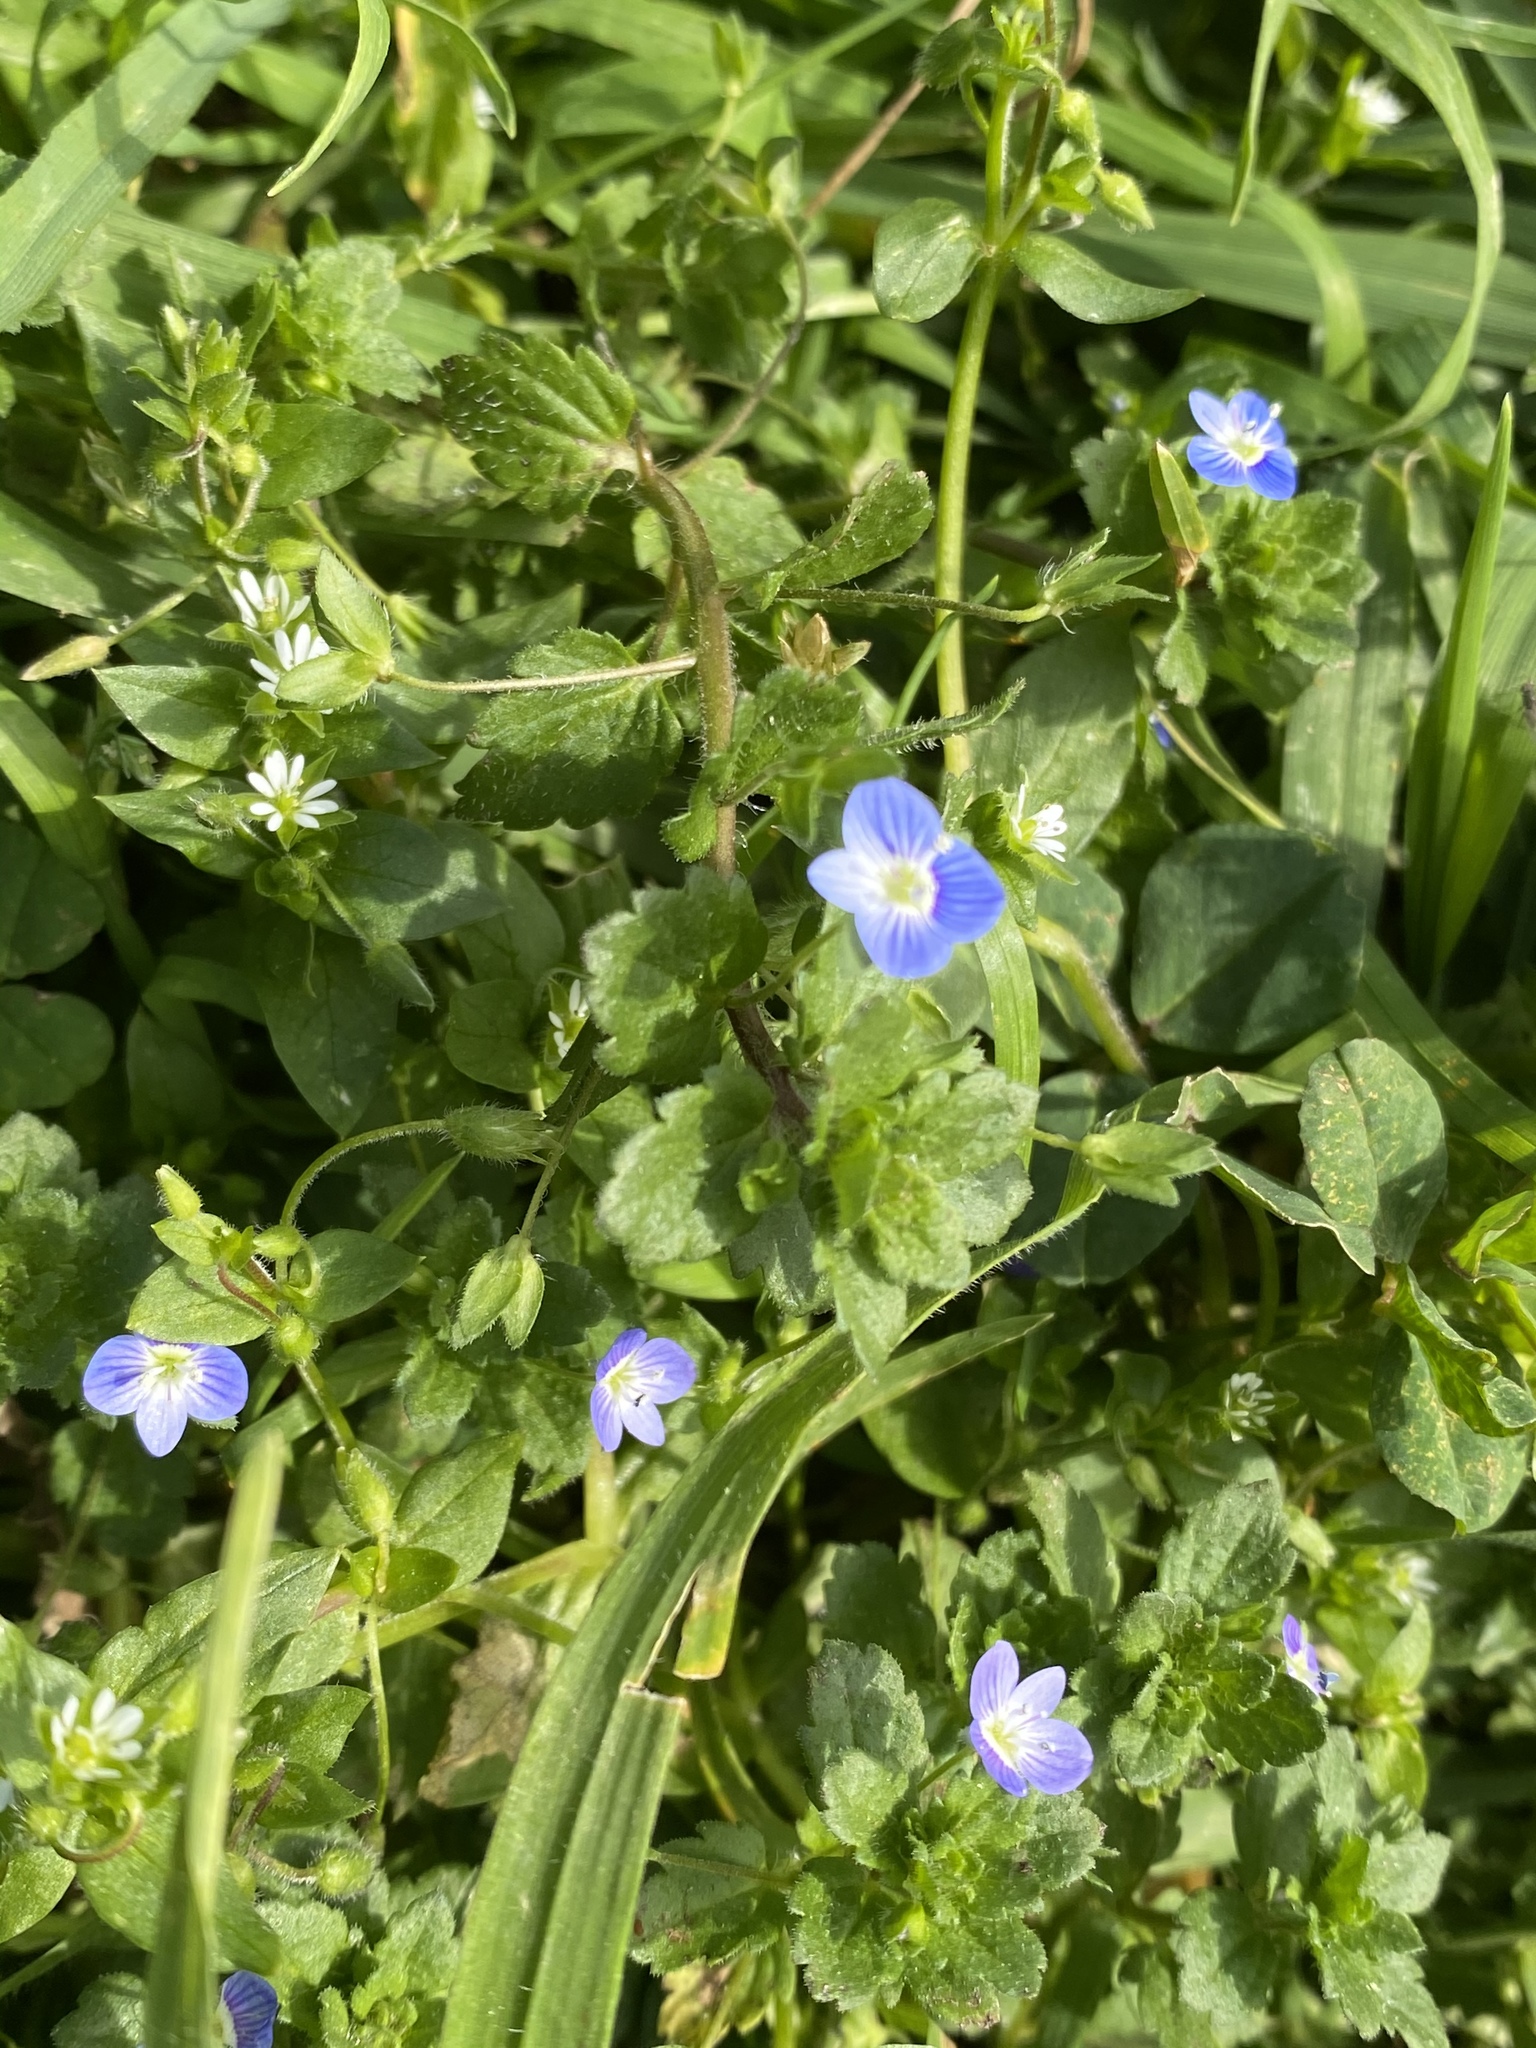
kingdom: Plantae
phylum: Tracheophyta
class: Magnoliopsida
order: Lamiales
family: Plantaginaceae
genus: Veronica
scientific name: Veronica persica
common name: Common field-speedwell
